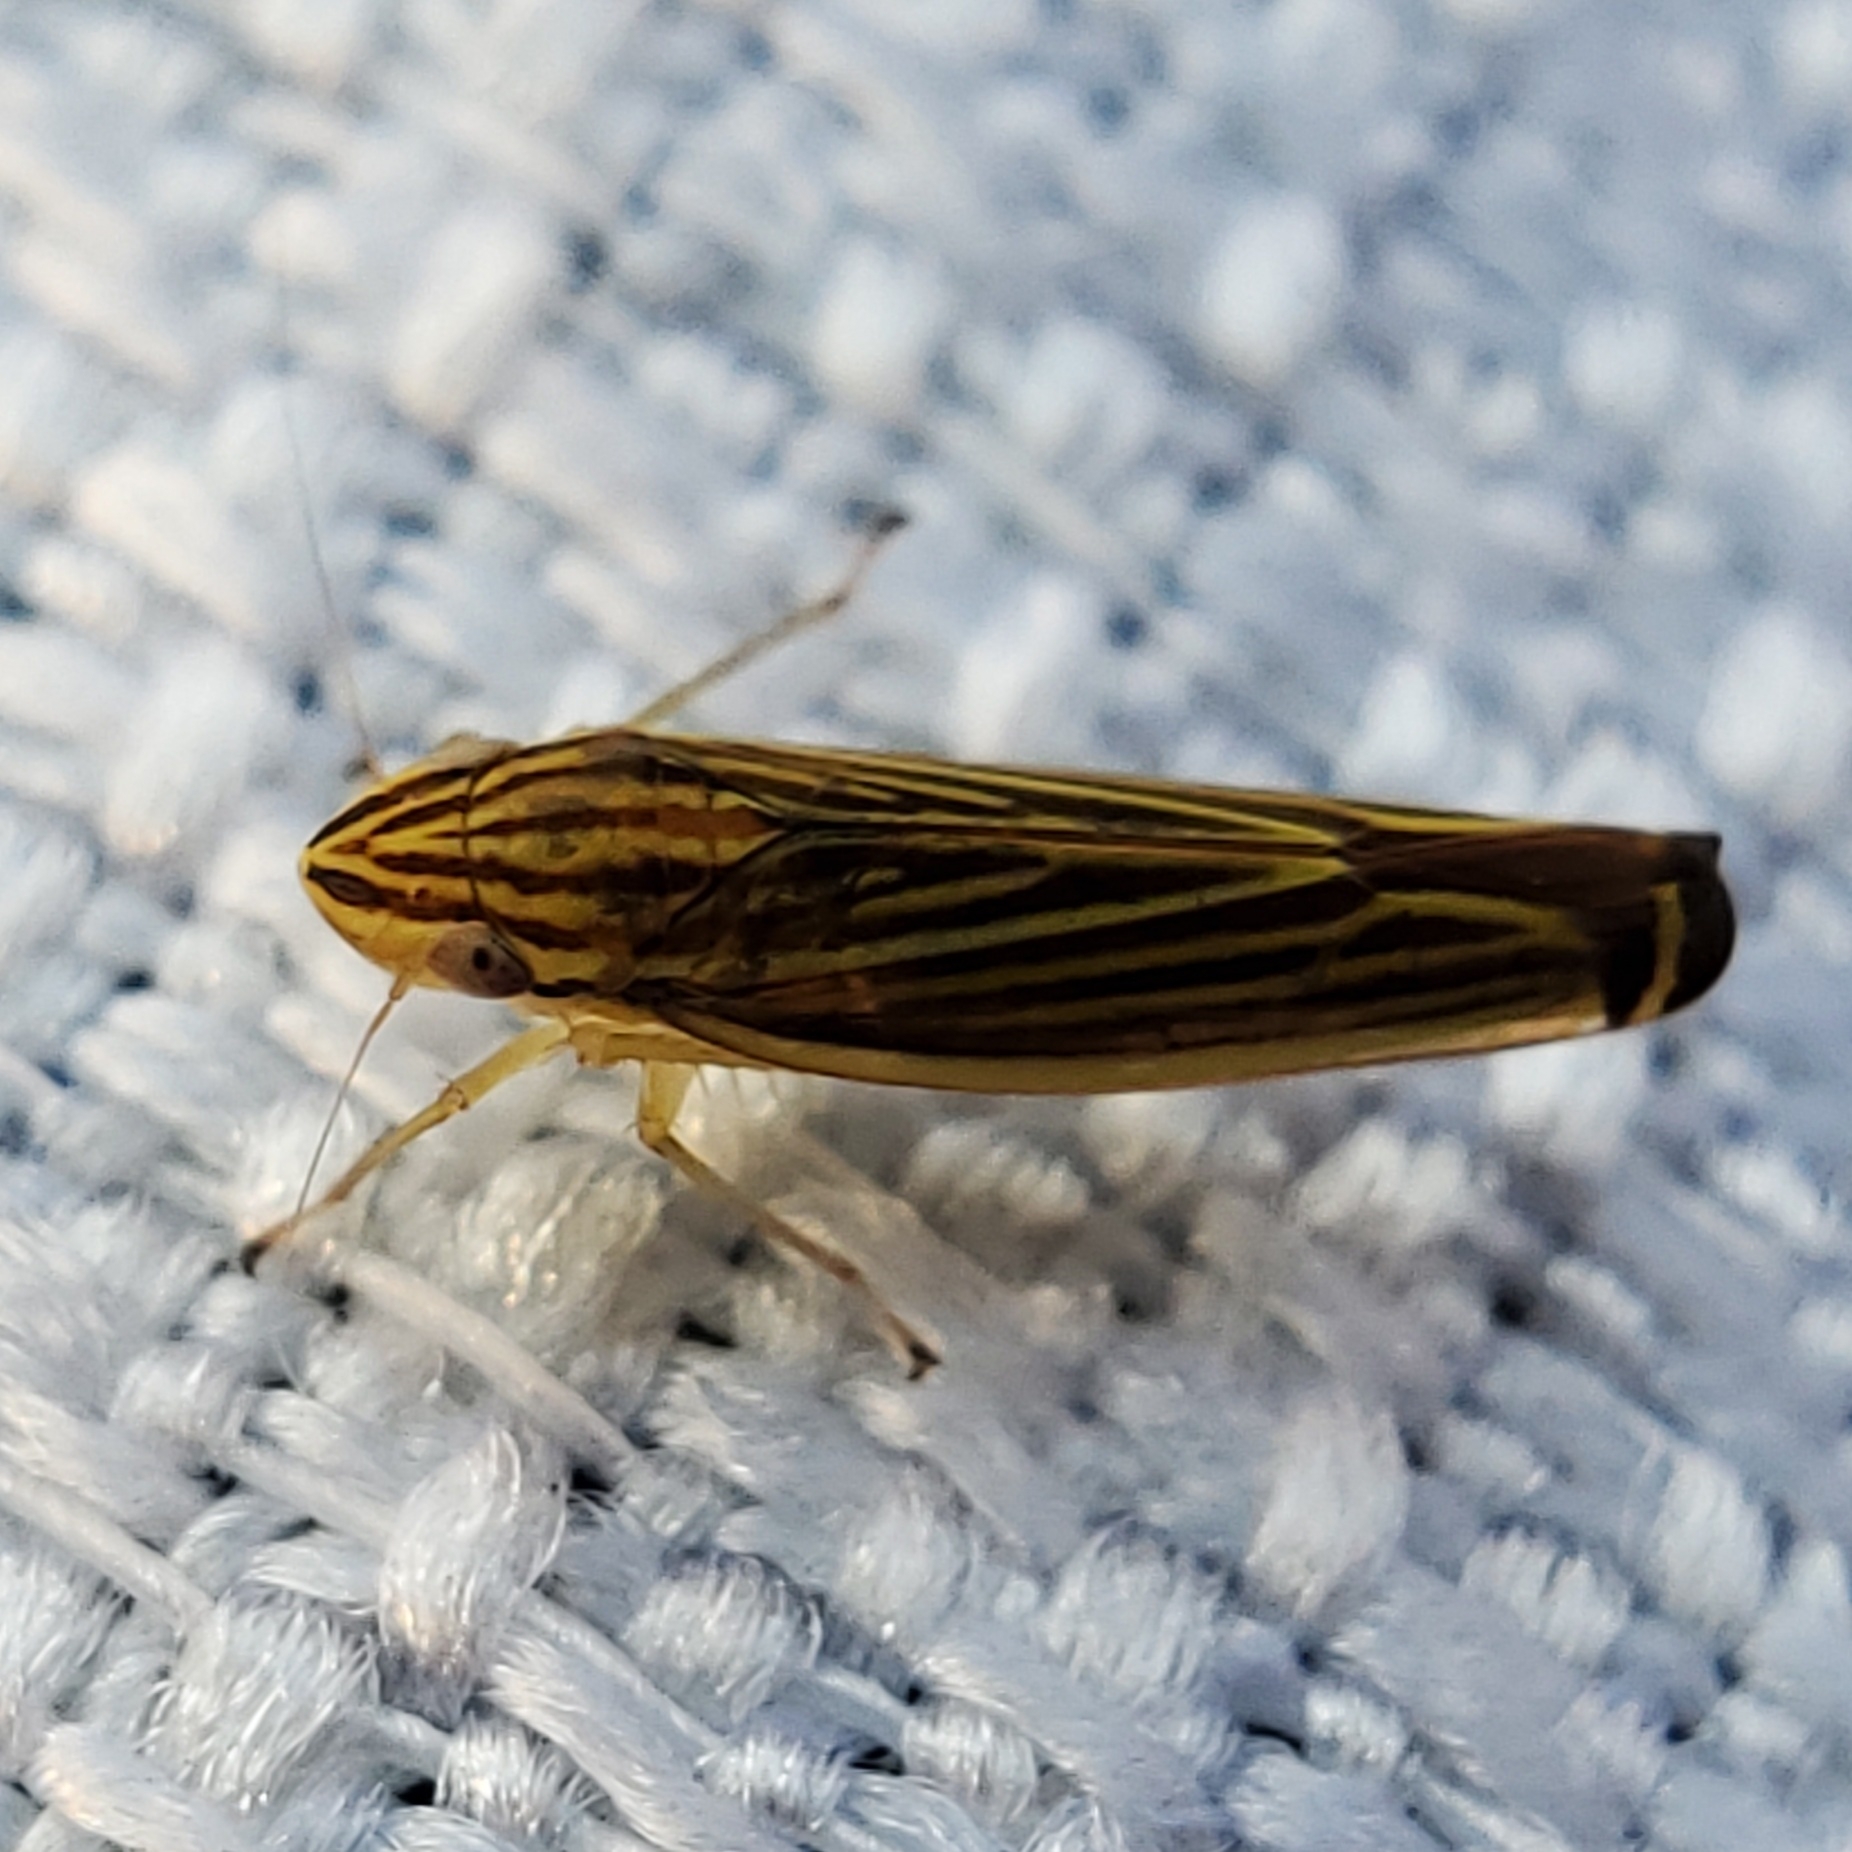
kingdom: Animalia
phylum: Arthropoda
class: Insecta
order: Hemiptera
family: Cicadellidae
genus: Sibovia
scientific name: Sibovia occatoria
